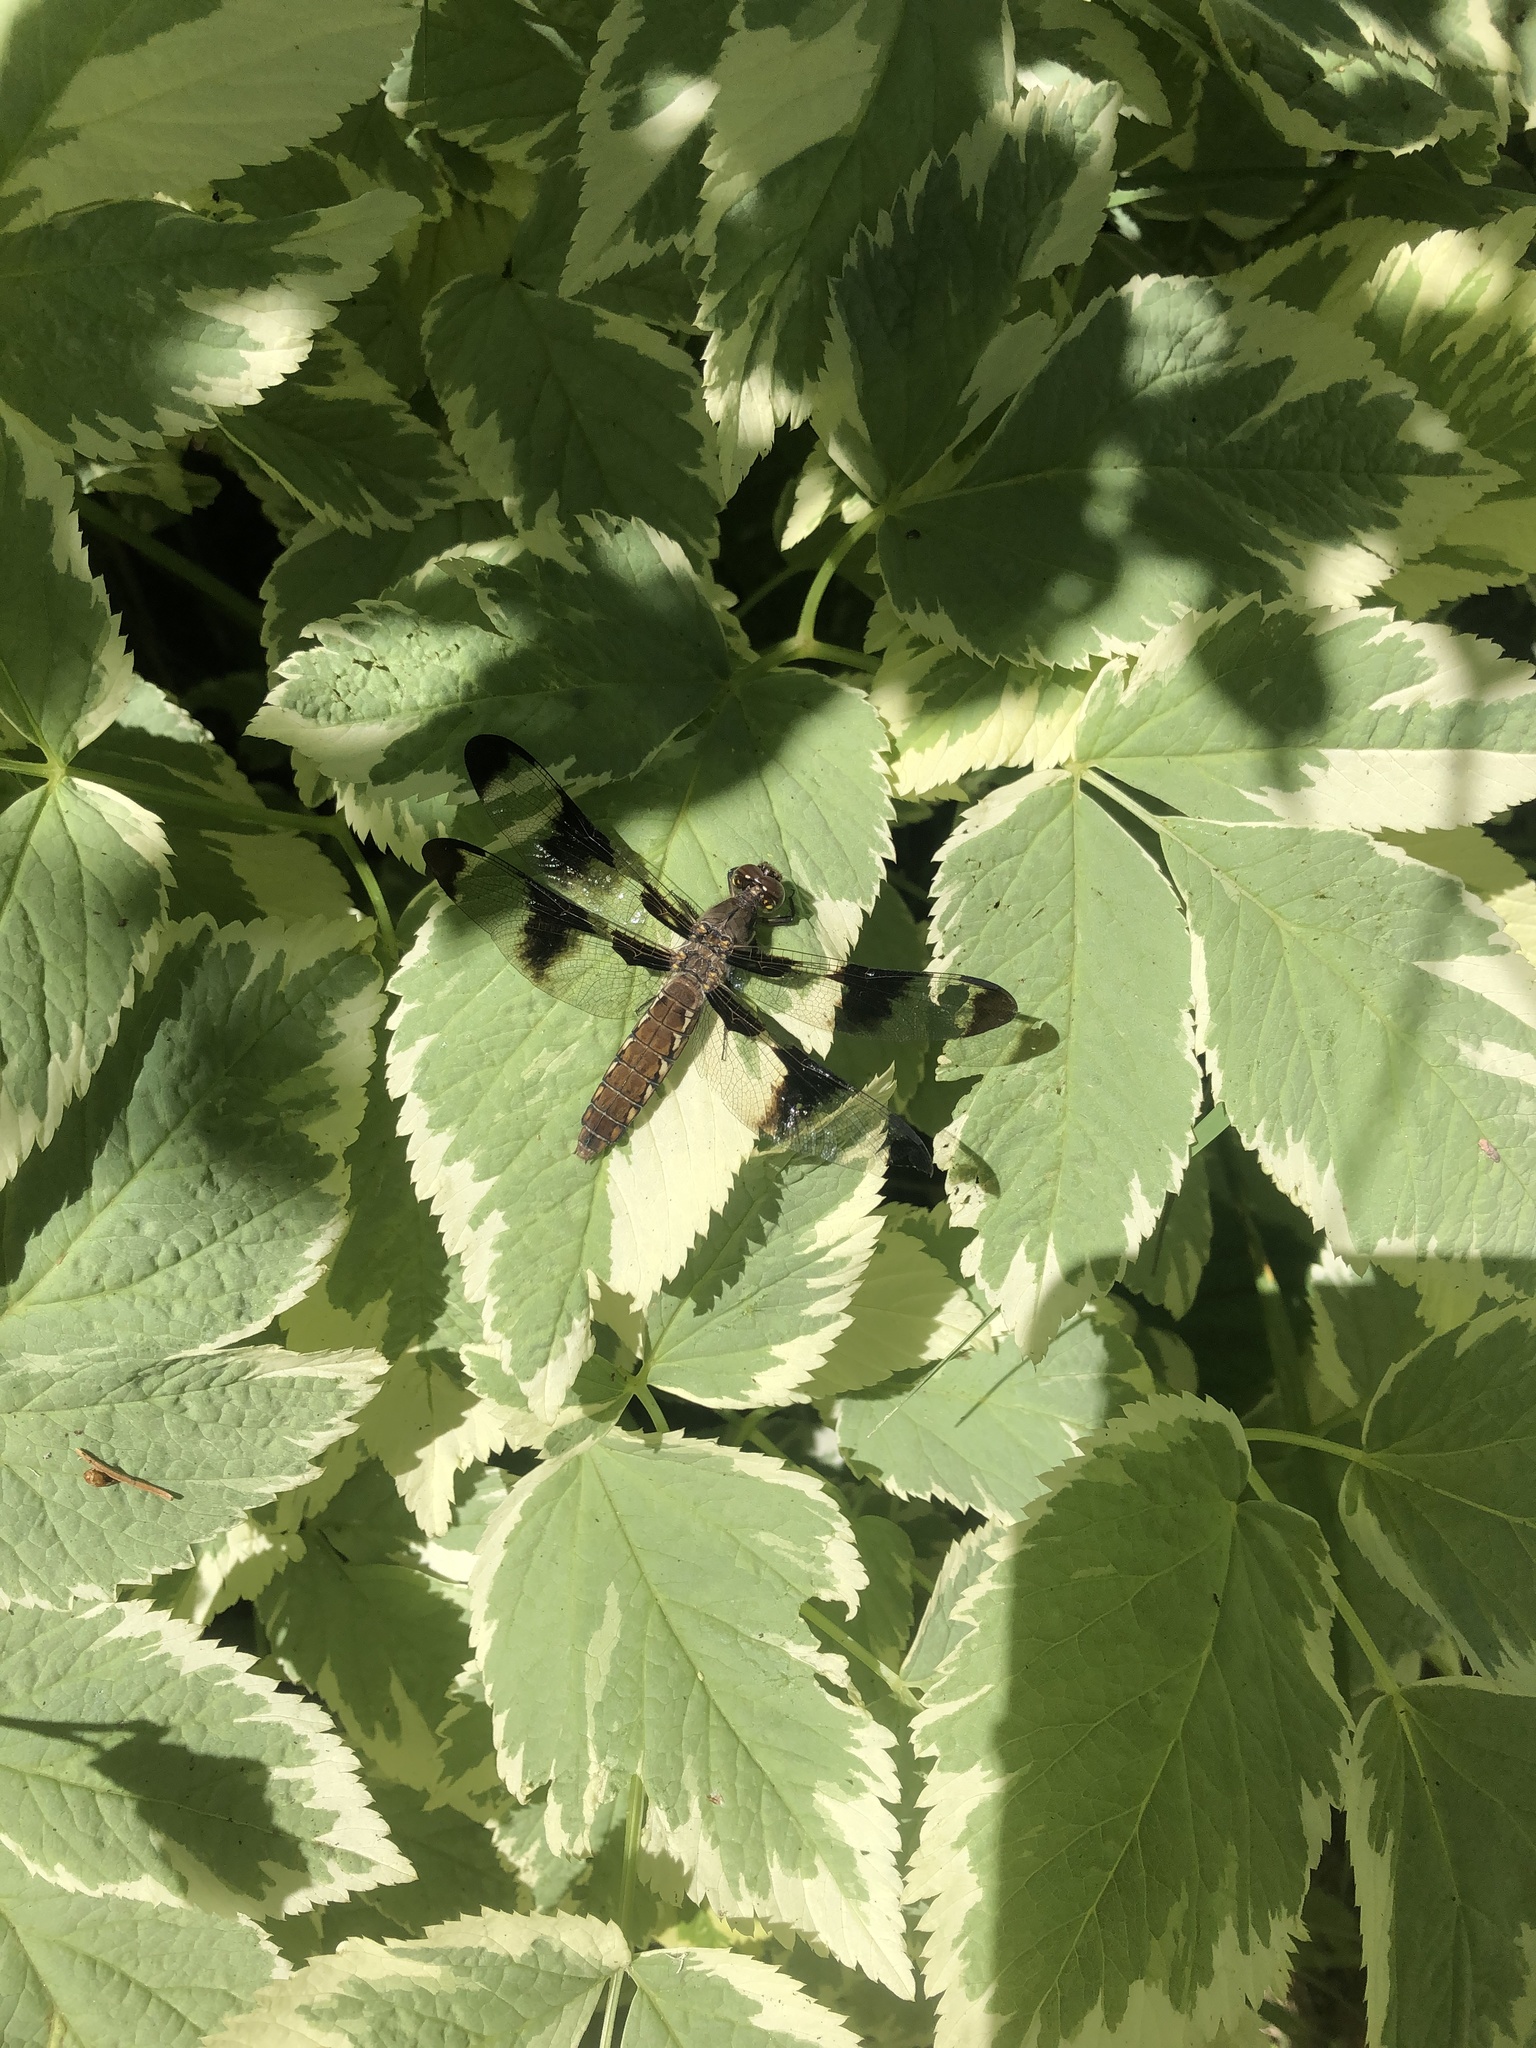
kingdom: Animalia
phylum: Arthropoda
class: Insecta
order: Odonata
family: Libellulidae
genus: Plathemis
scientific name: Plathemis lydia
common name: Common whitetail
